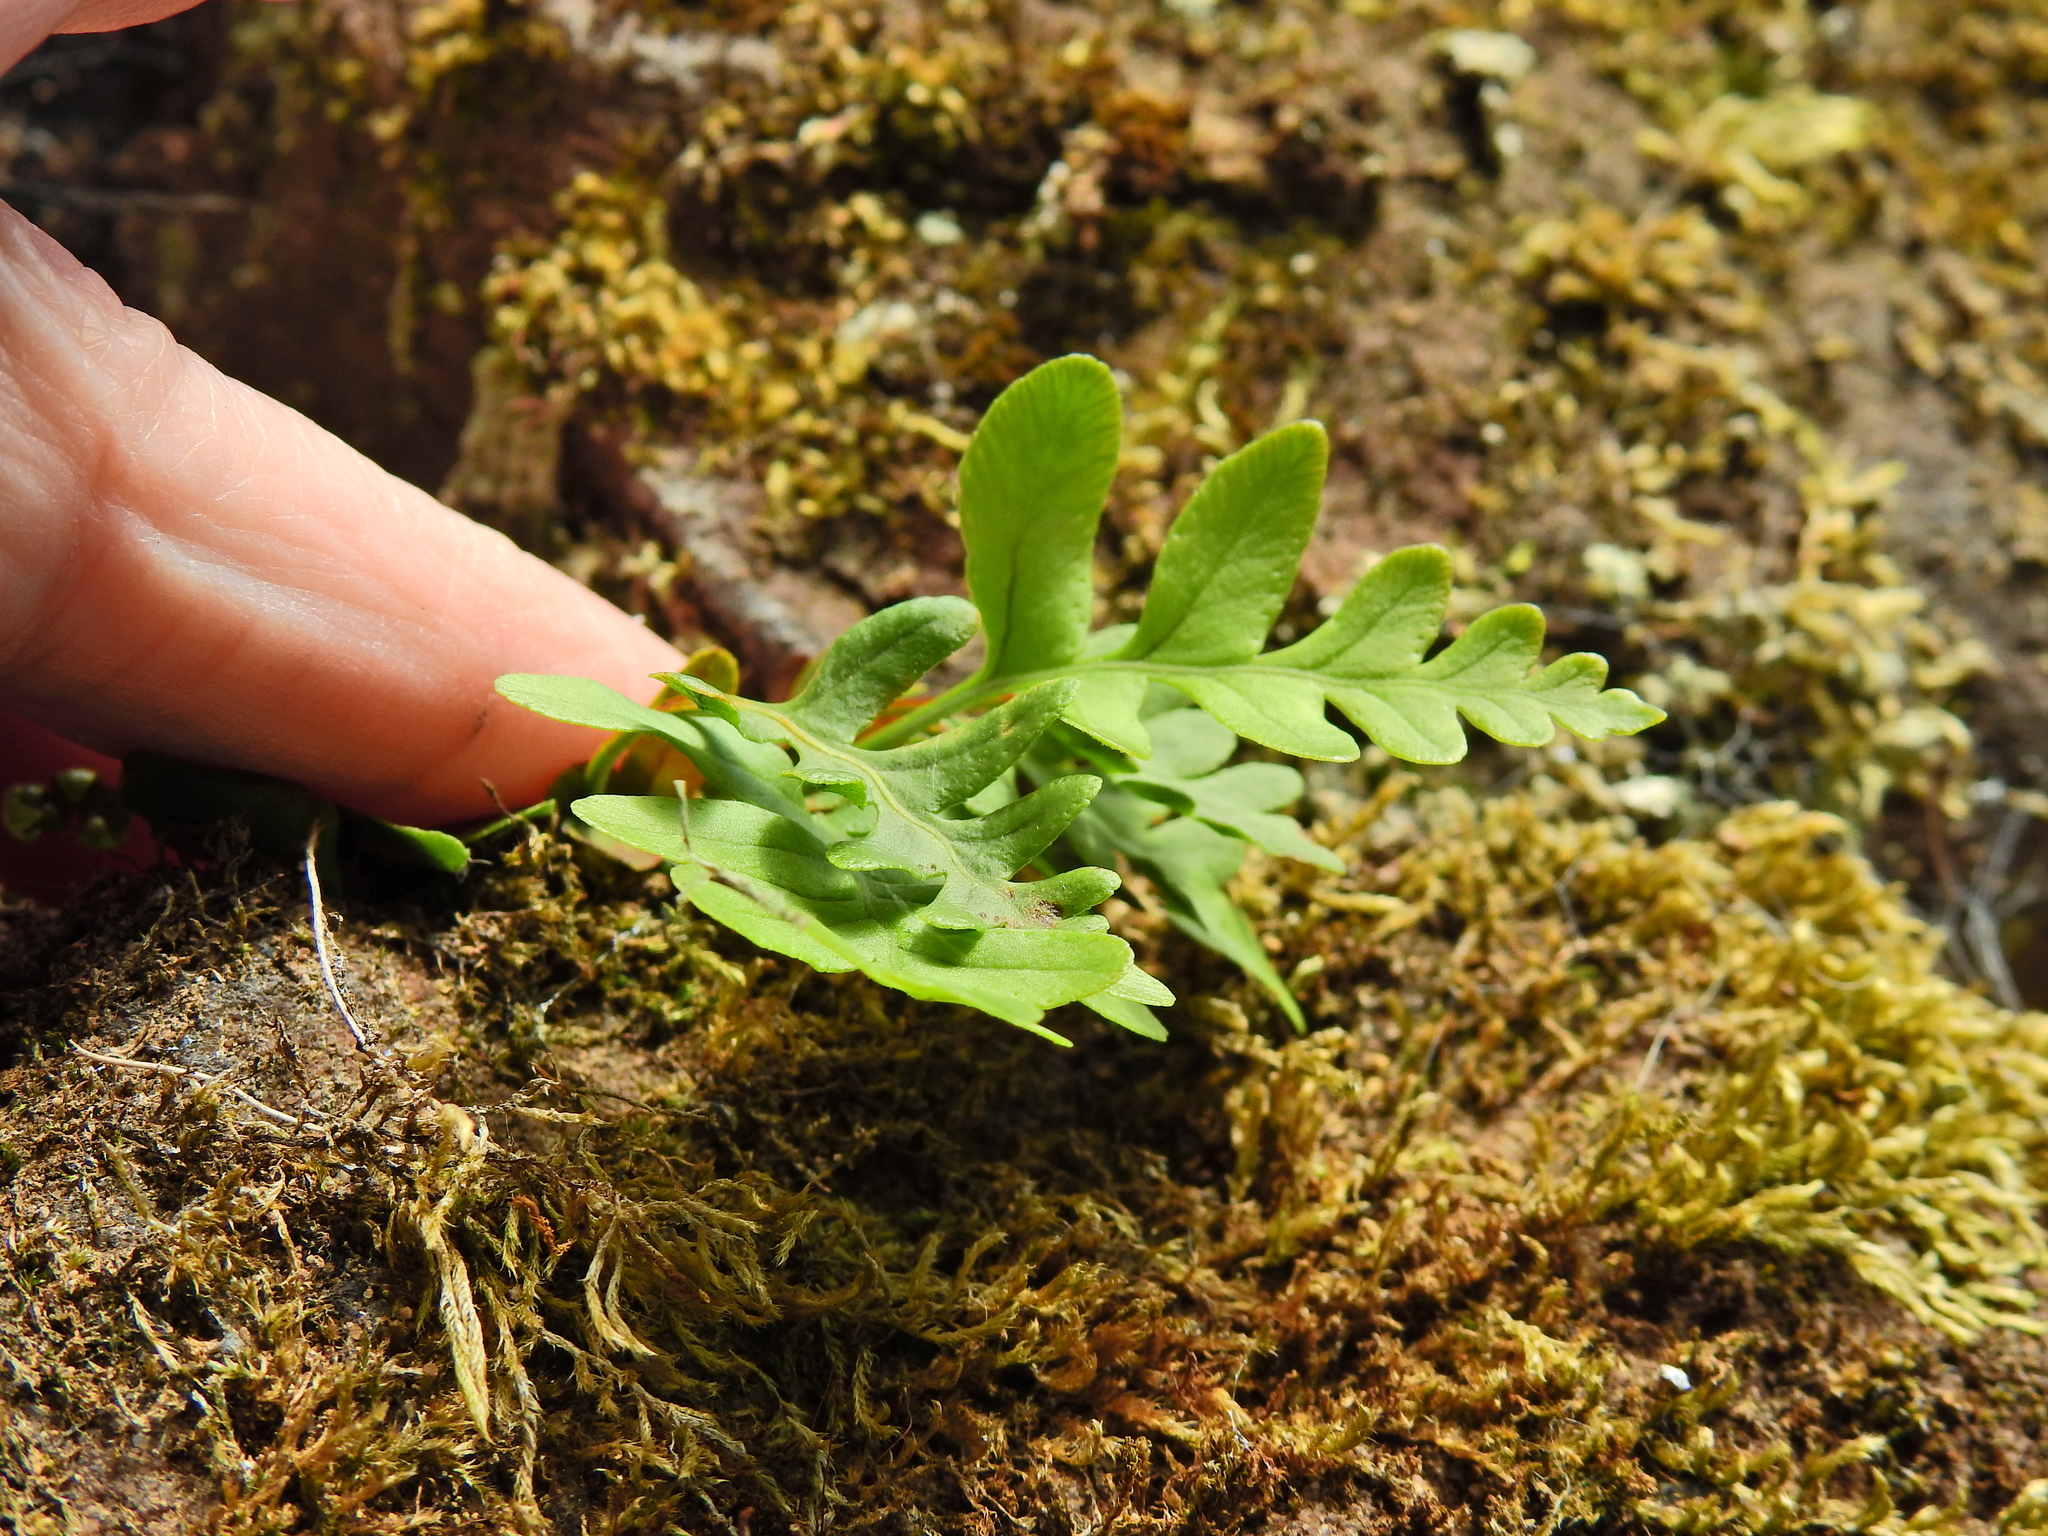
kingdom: Plantae
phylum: Tracheophyta
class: Polypodiopsida
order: Polypodiales
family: Polypodiaceae
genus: Polypodium
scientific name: Polypodium vulgare
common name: Common polypody
